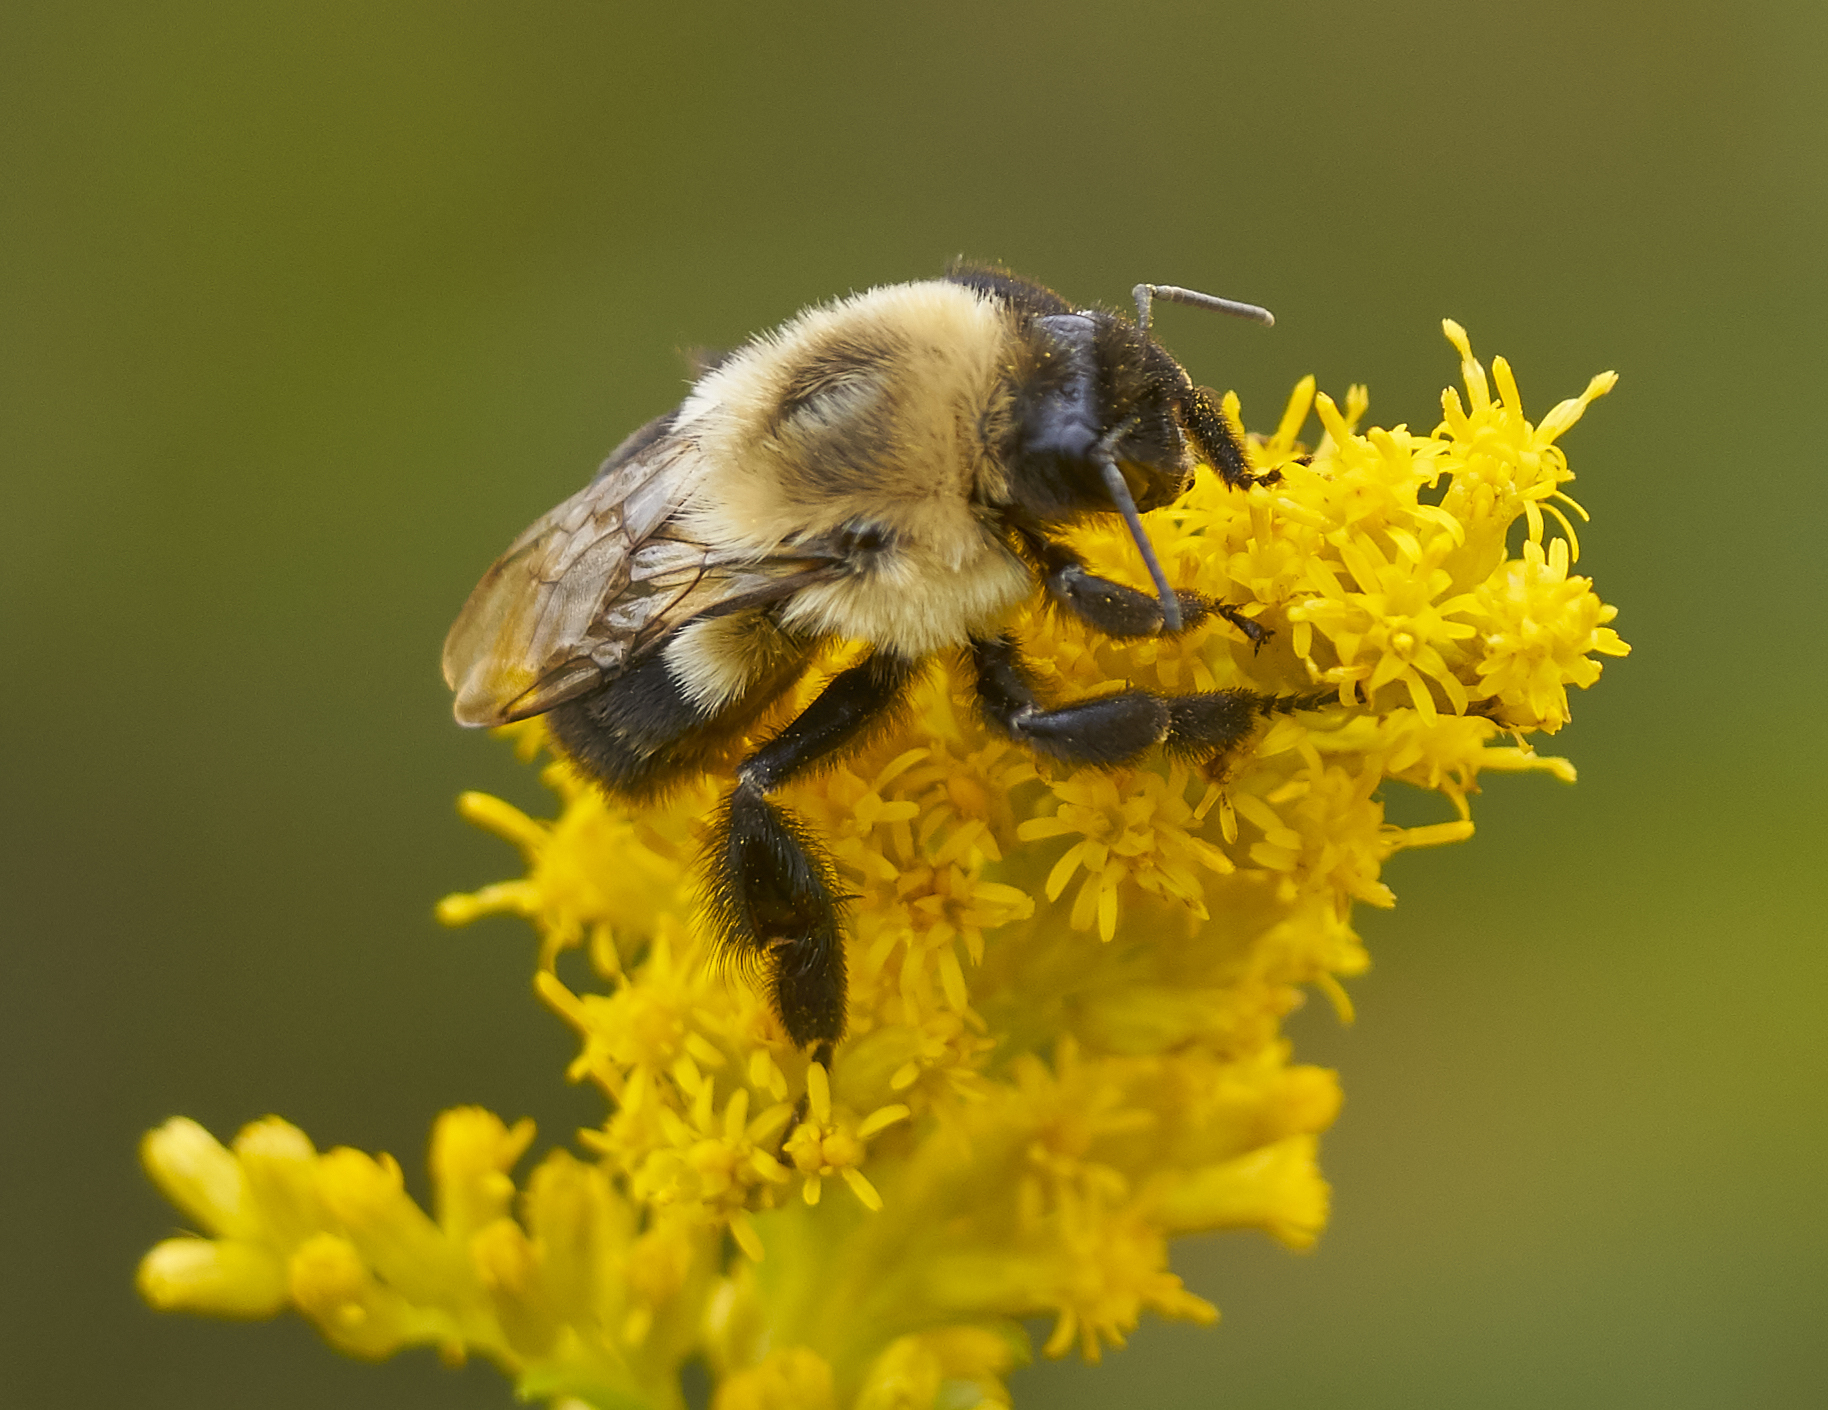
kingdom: Animalia
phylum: Arthropoda
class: Insecta
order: Hymenoptera
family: Apidae
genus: Bombus
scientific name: Bombus impatiens
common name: Common eastern bumble bee
